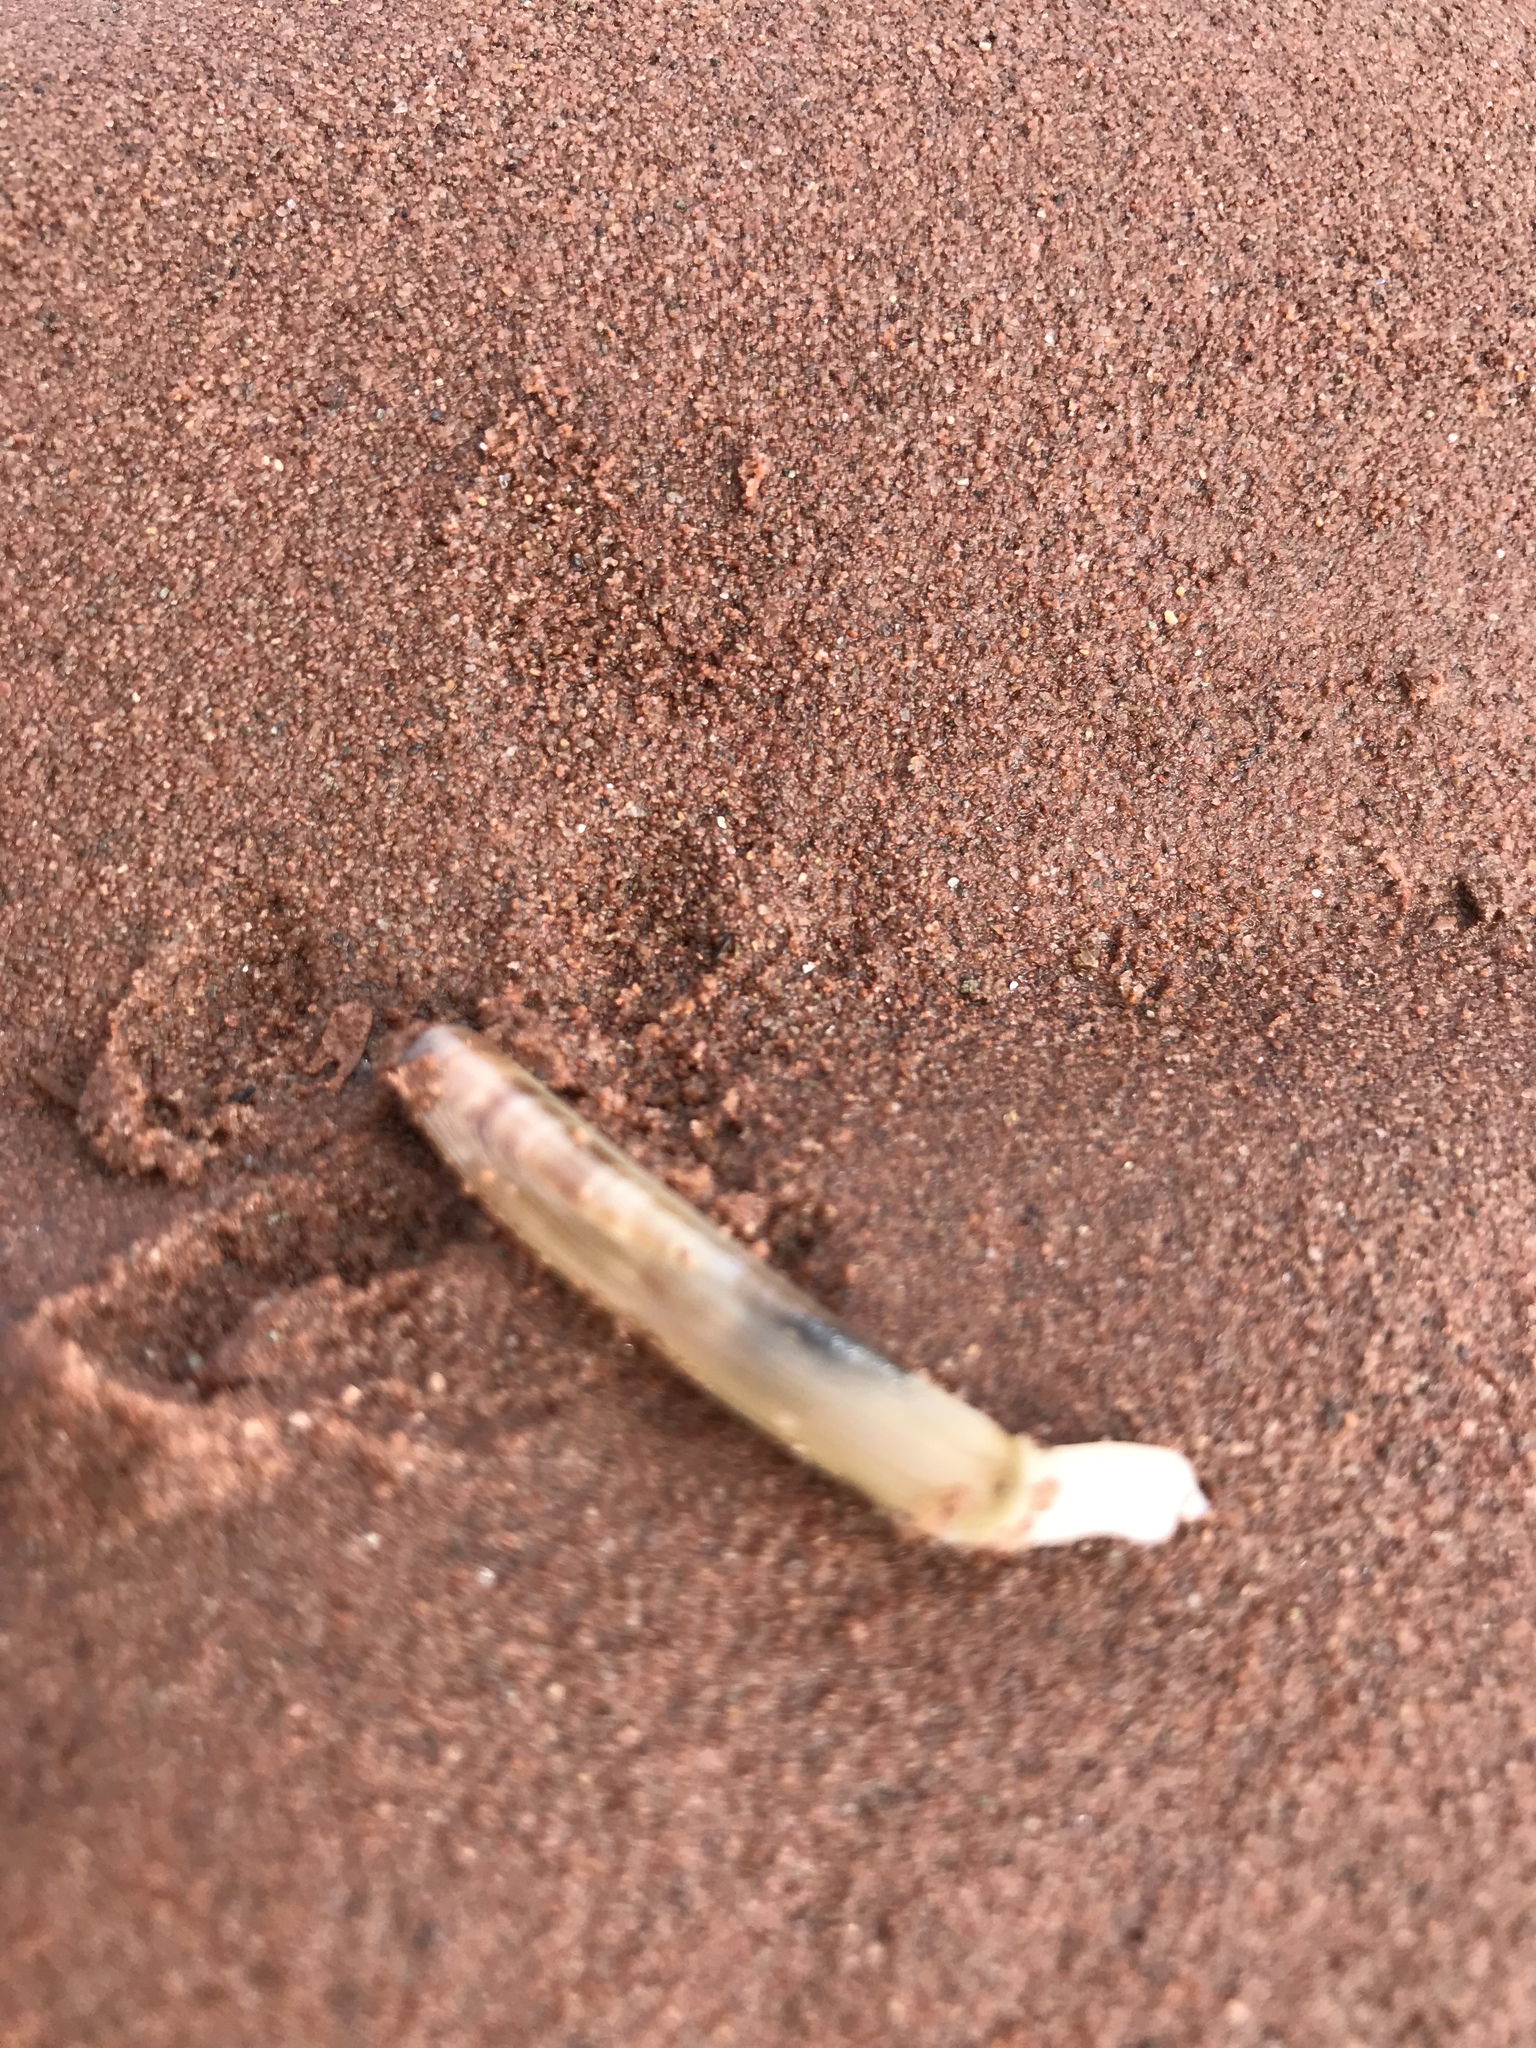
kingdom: Animalia
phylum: Mollusca
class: Bivalvia
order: Adapedonta
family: Pharidae
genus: Ensis
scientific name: Ensis leei
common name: American jack knife clam
